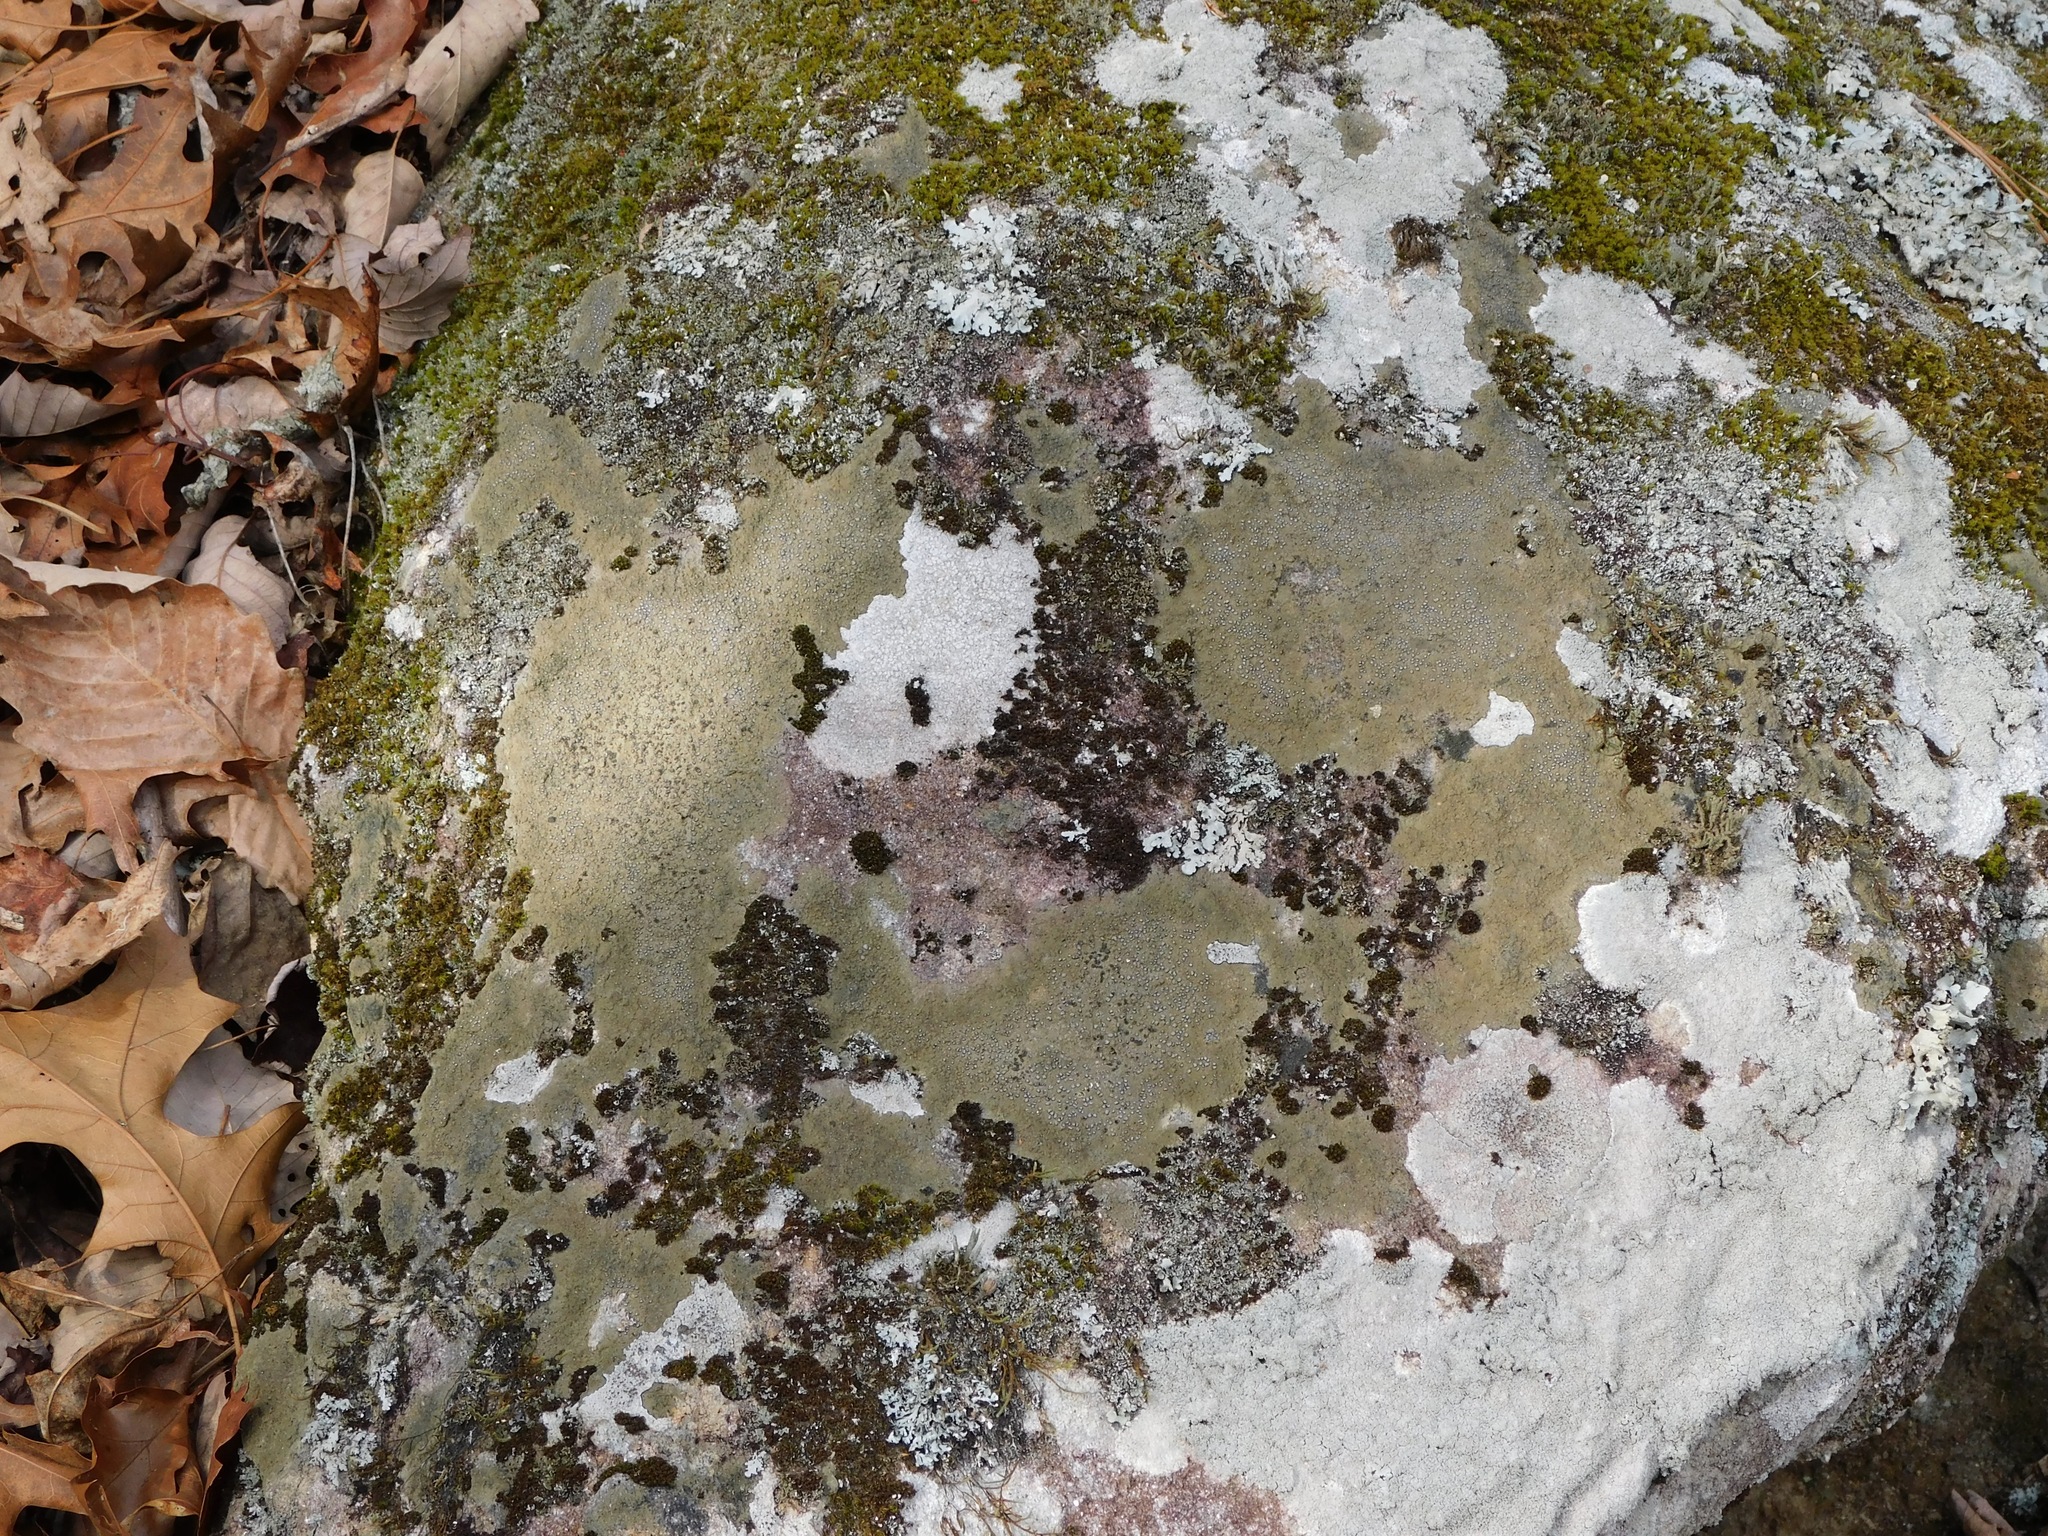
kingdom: Fungi
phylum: Ascomycota
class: Lecanoromycetes
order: Lecideales
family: Lecideaceae
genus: Porpidia
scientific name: Porpidia albocaerulescens
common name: Smokey-eyed boulder lichen
